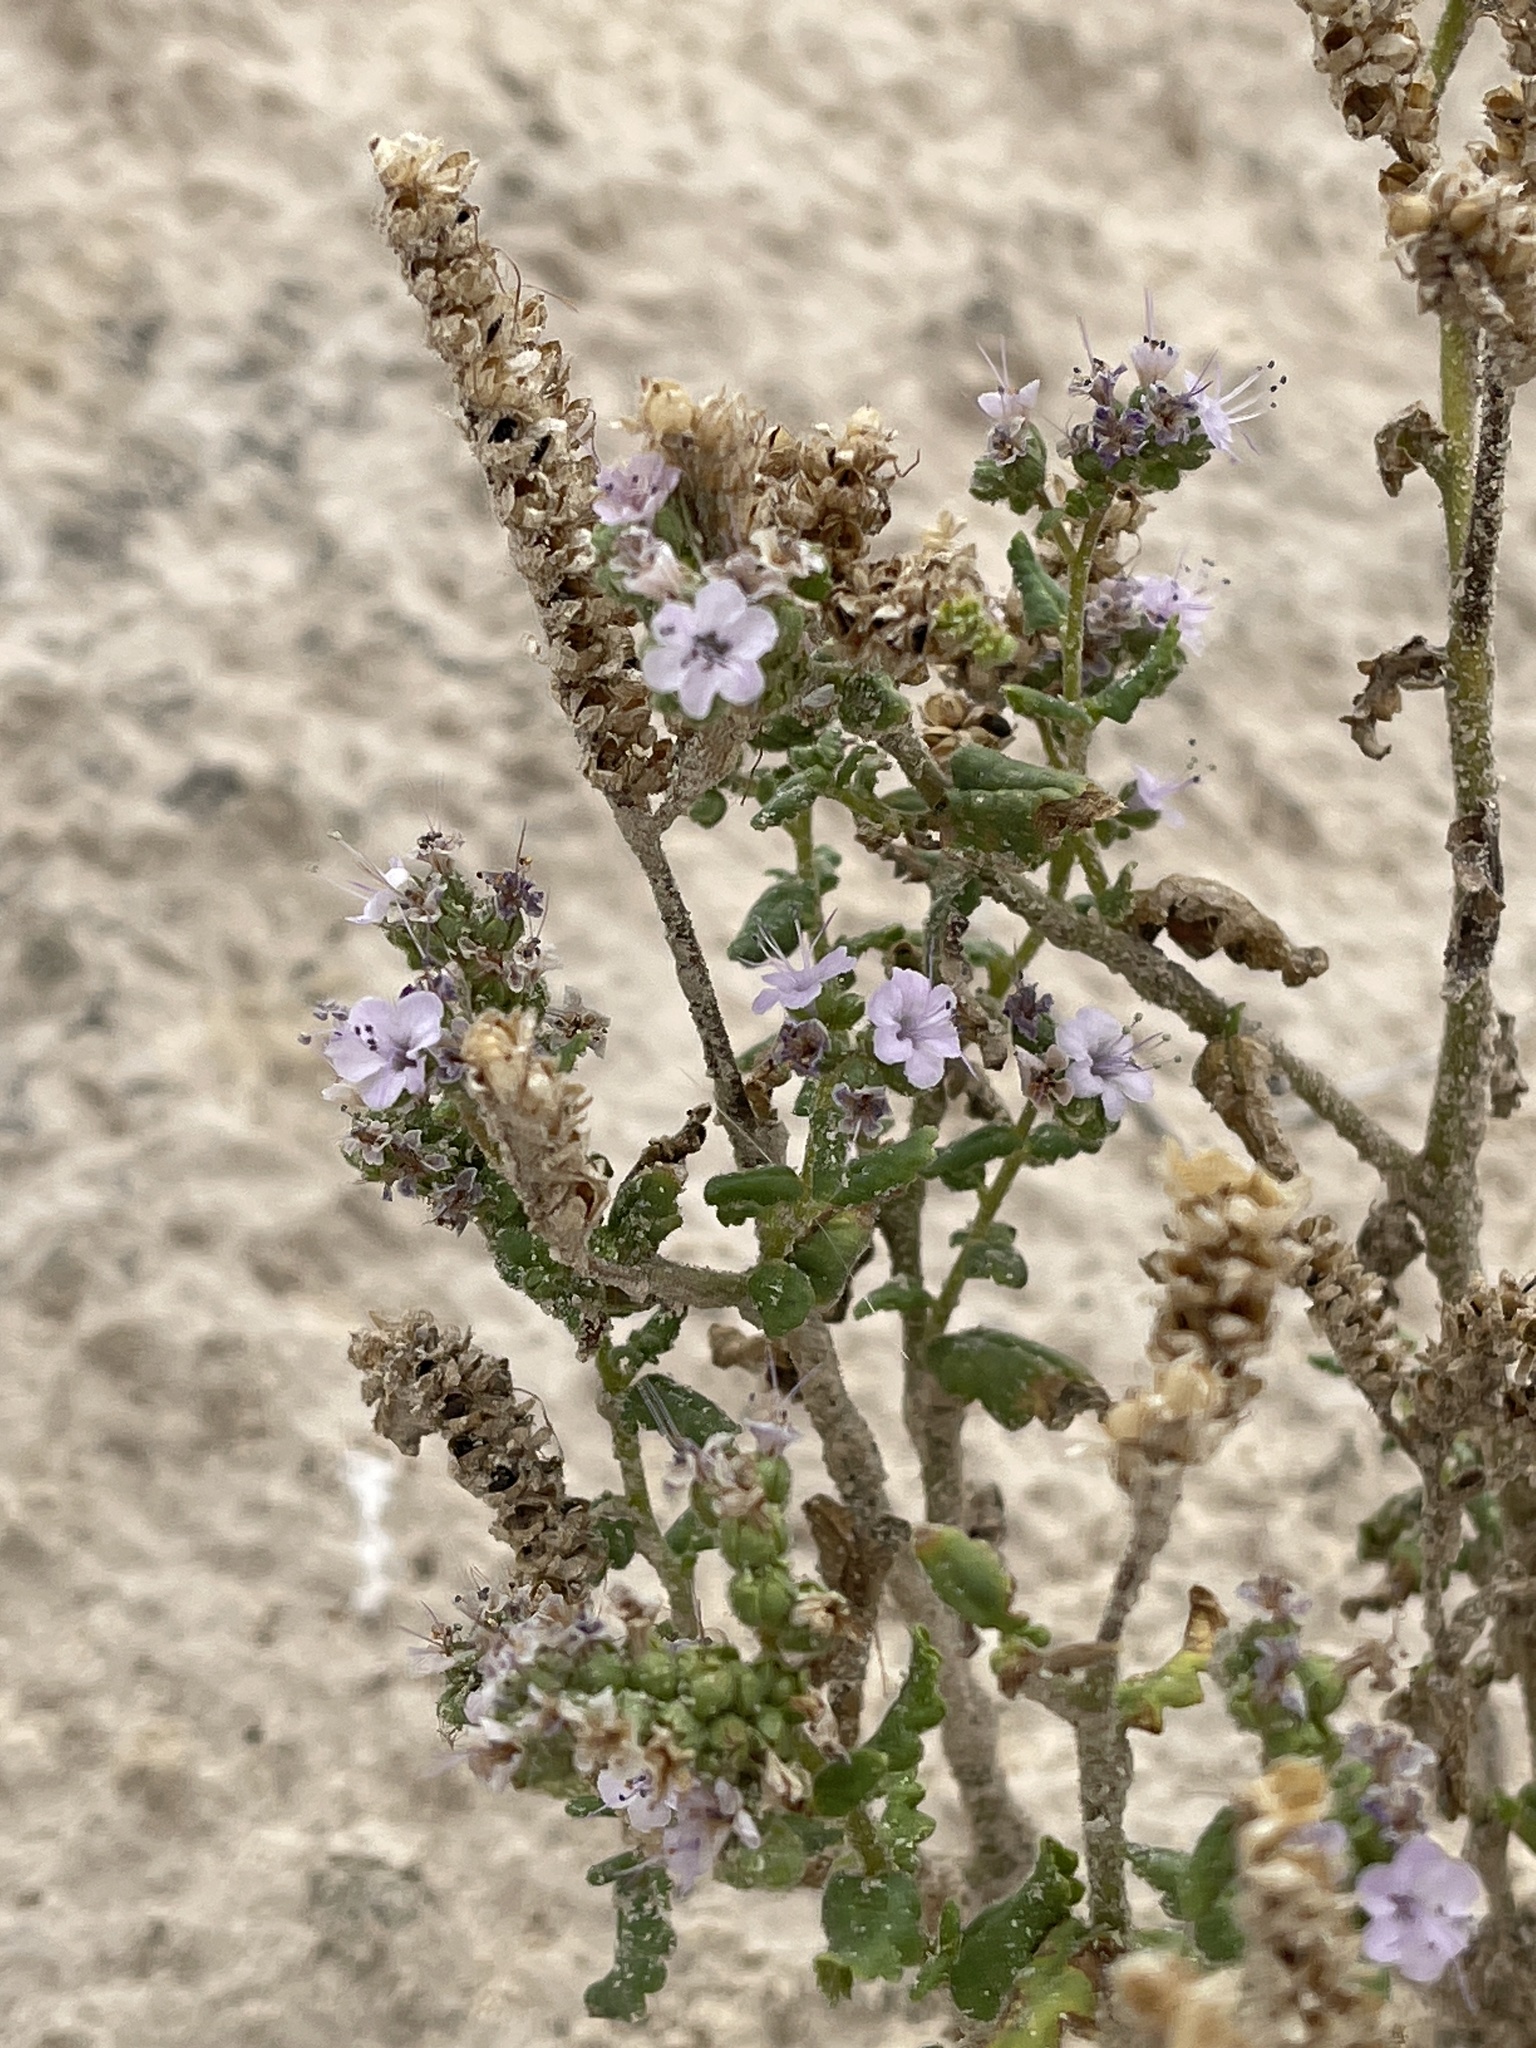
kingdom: Plantae
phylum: Tracheophyta
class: Magnoliopsida
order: Boraginales
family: Hydrophyllaceae
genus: Phacelia
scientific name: Phacelia integrifolia
